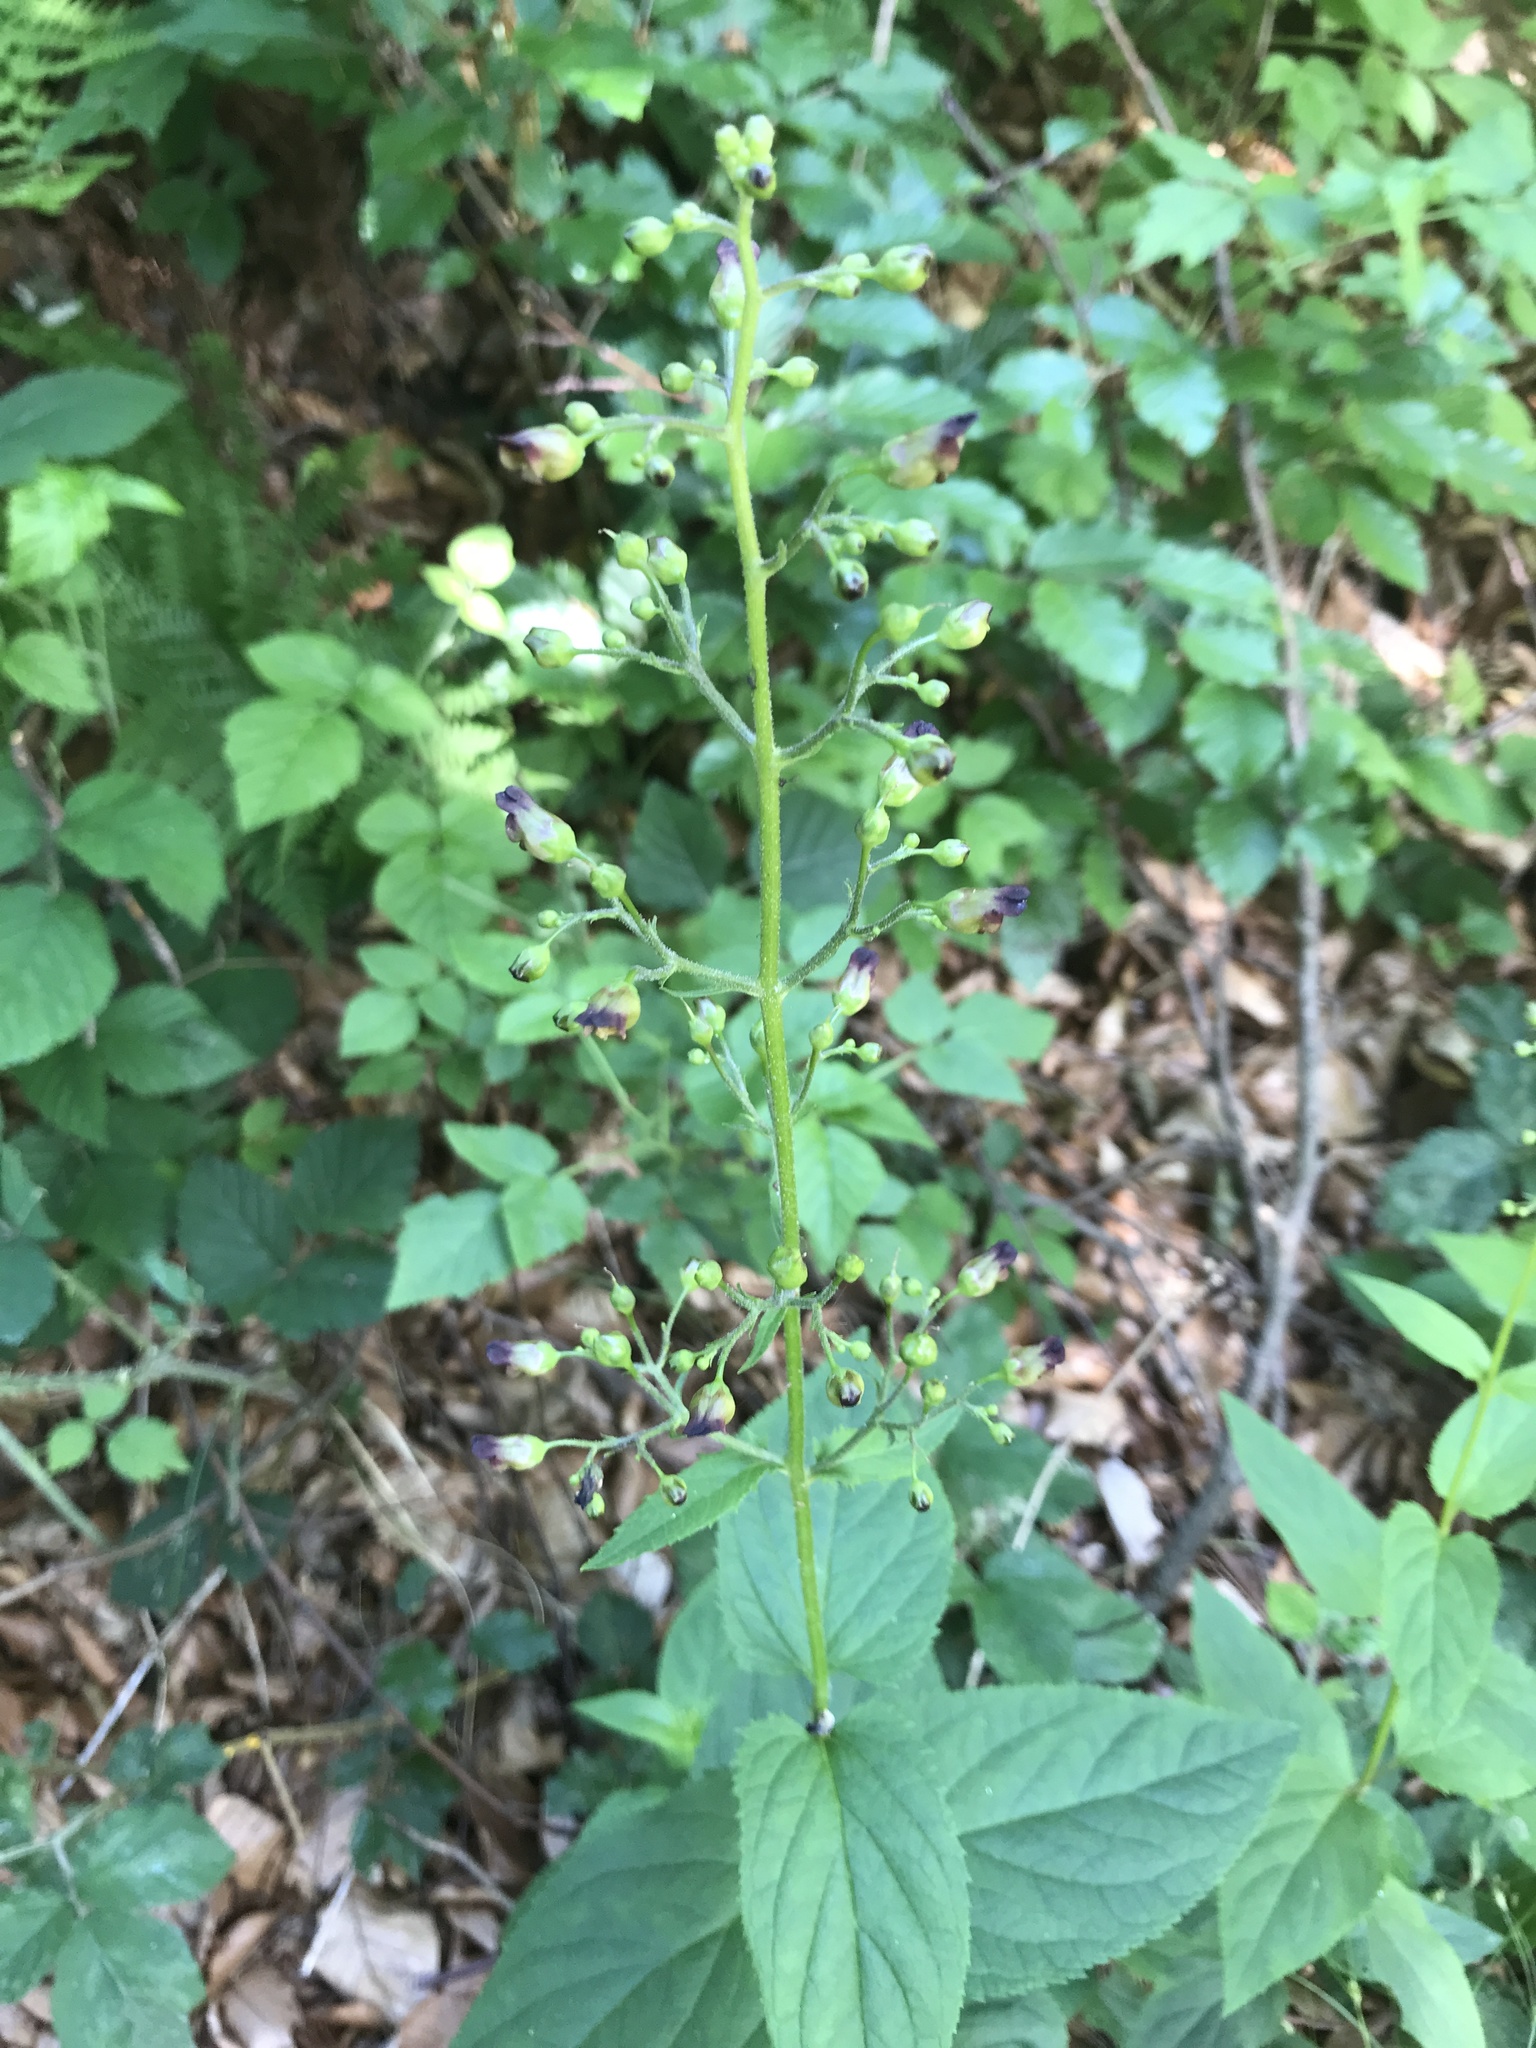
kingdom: Plantae
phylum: Tracheophyta
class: Magnoliopsida
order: Lamiales
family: Scrophulariaceae
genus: Scrophularia
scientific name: Scrophularia nodosa
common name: Common figwort
